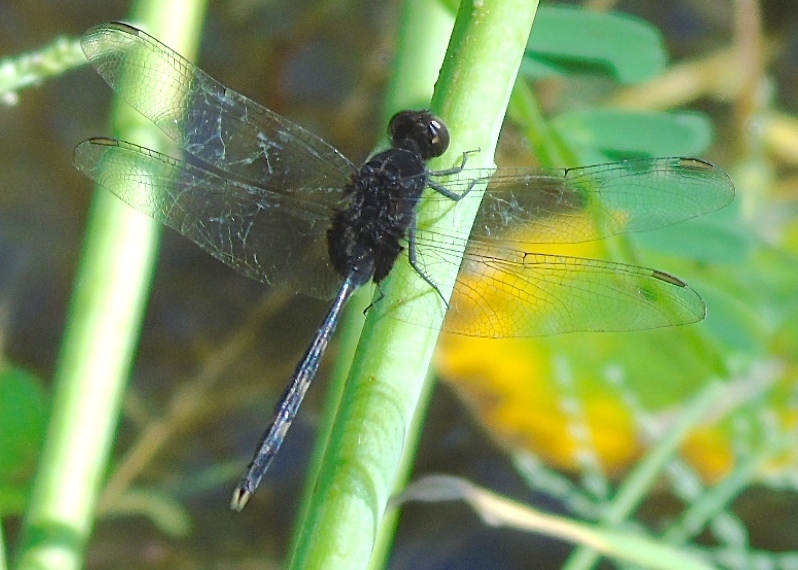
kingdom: Animalia
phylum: Arthropoda
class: Insecta
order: Odonata
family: Libellulidae
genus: Erythemis
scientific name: Erythemis plebeja
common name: Pin-tailed pondhawk
